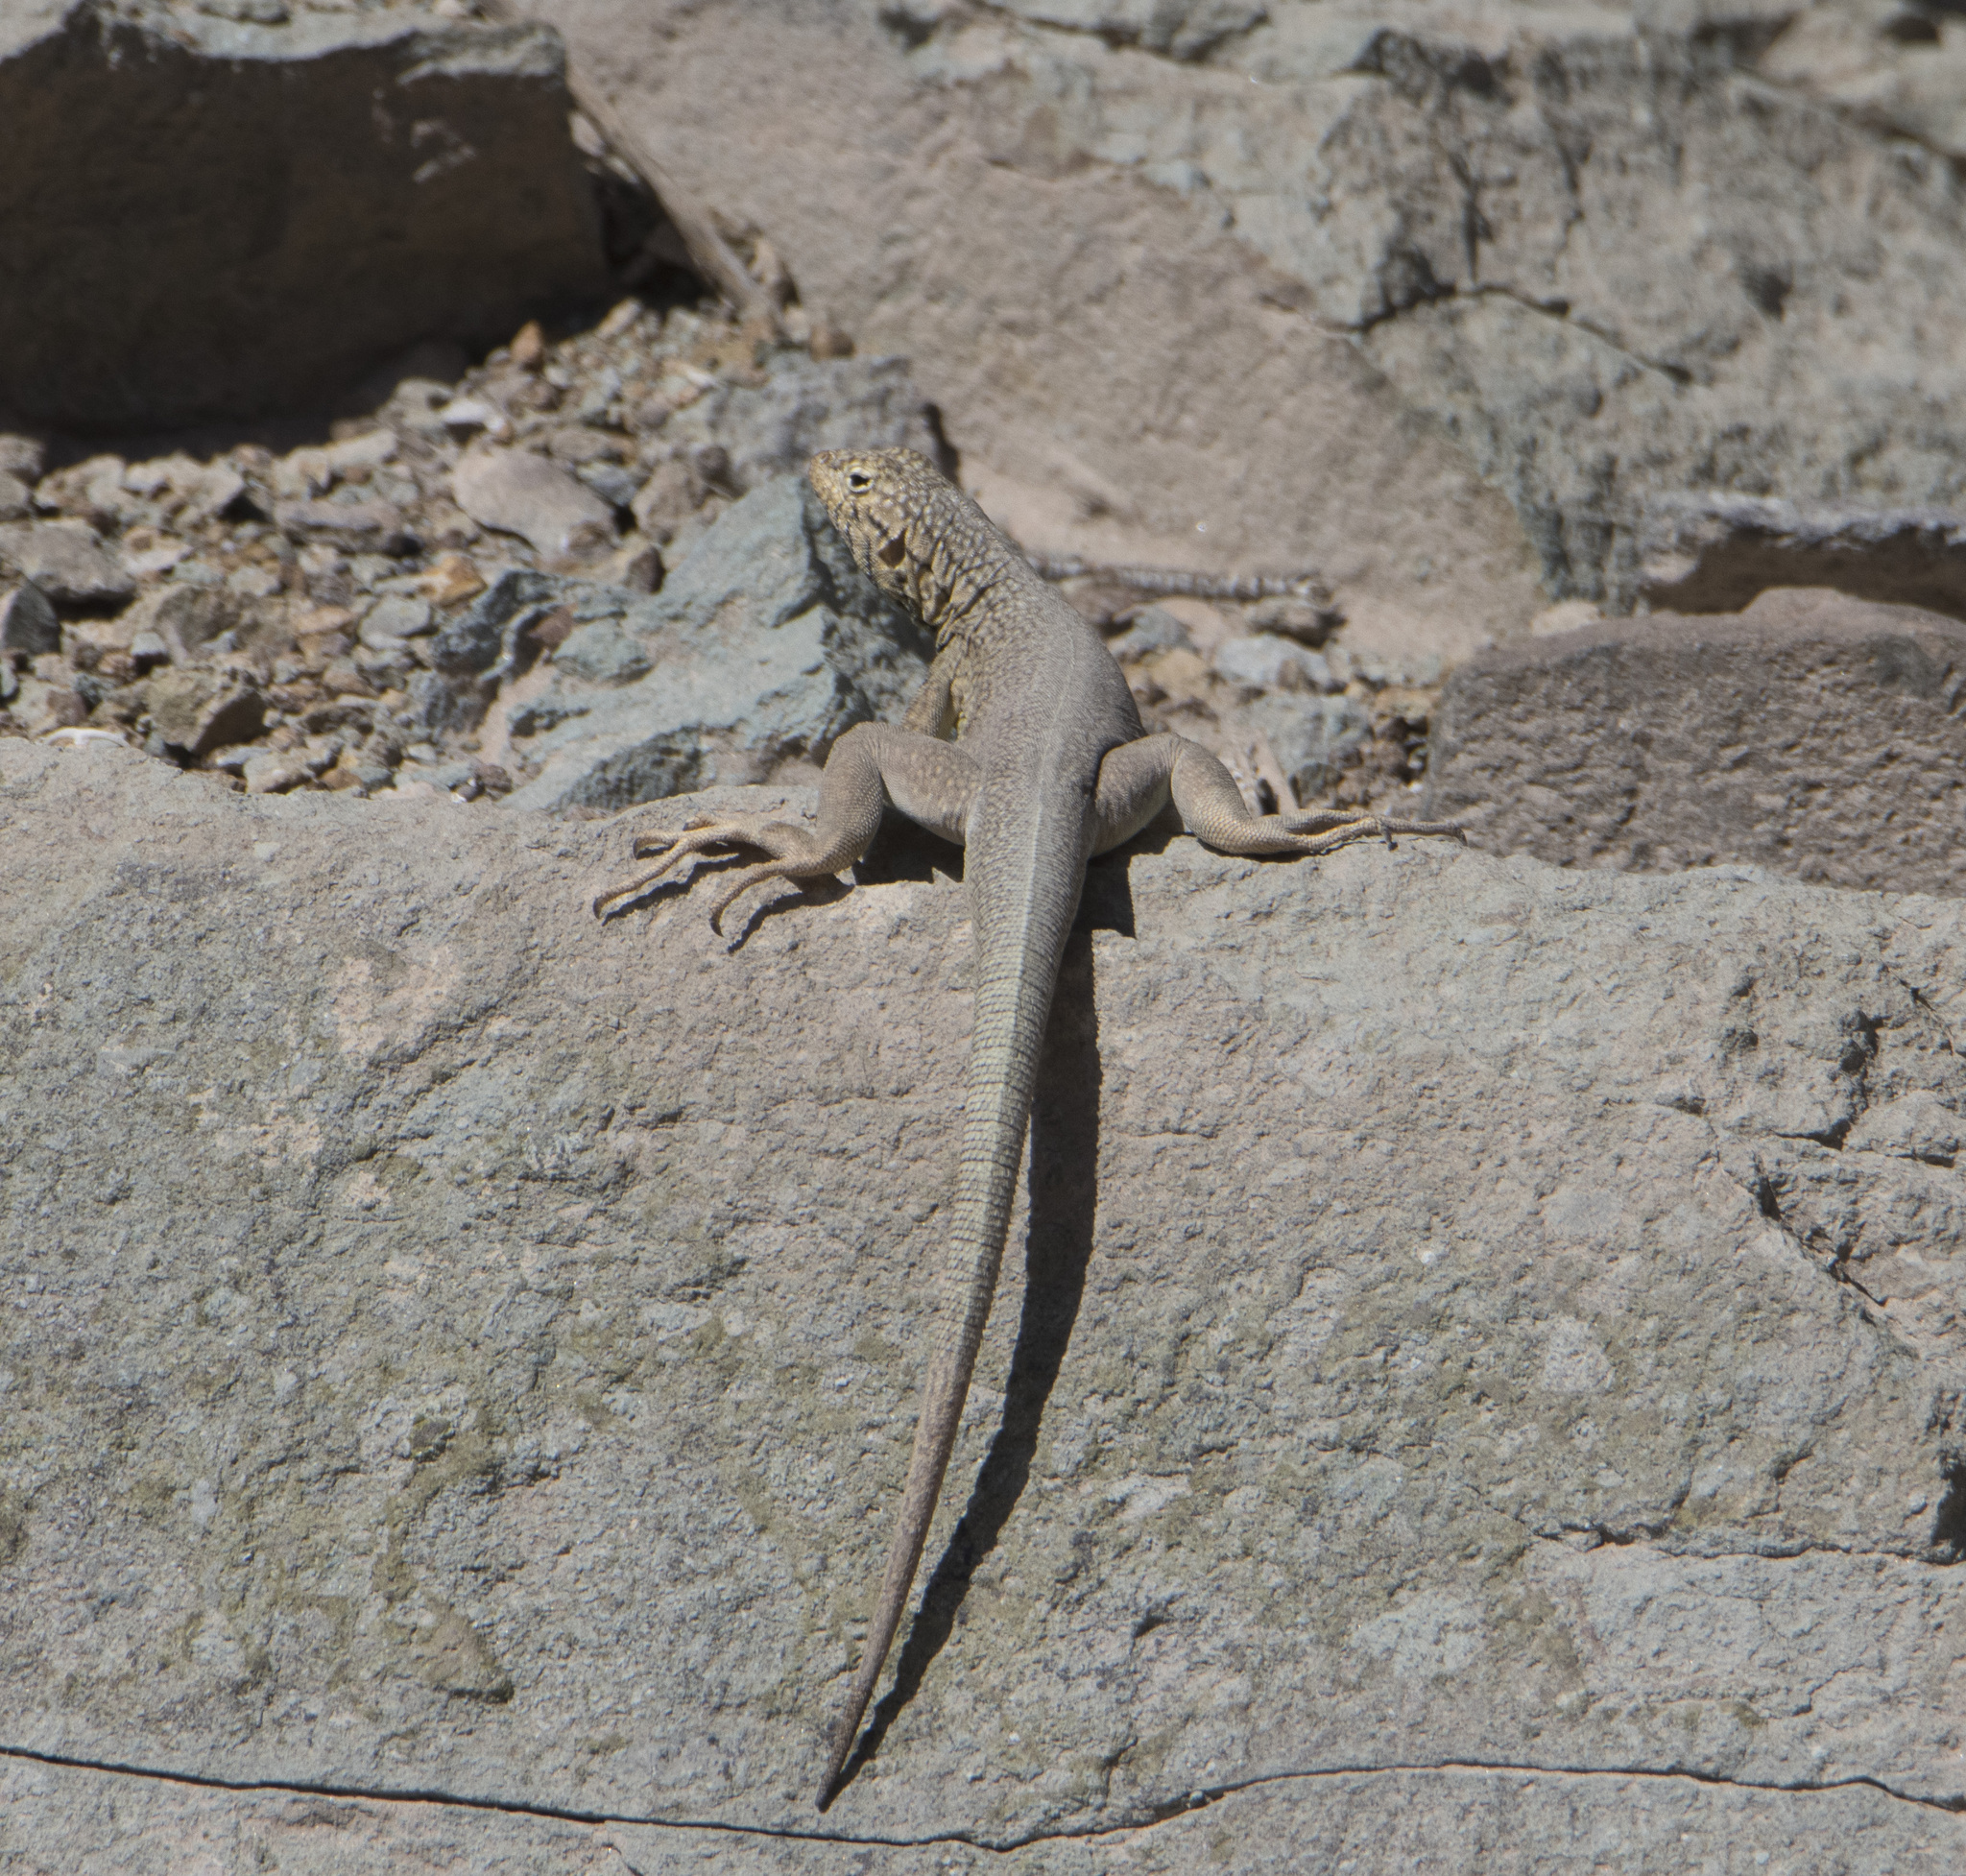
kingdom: Animalia
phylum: Chordata
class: Squamata
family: Tropiduridae
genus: Microlophus
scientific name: Microlophus theresioides
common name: Small pacific iguana
